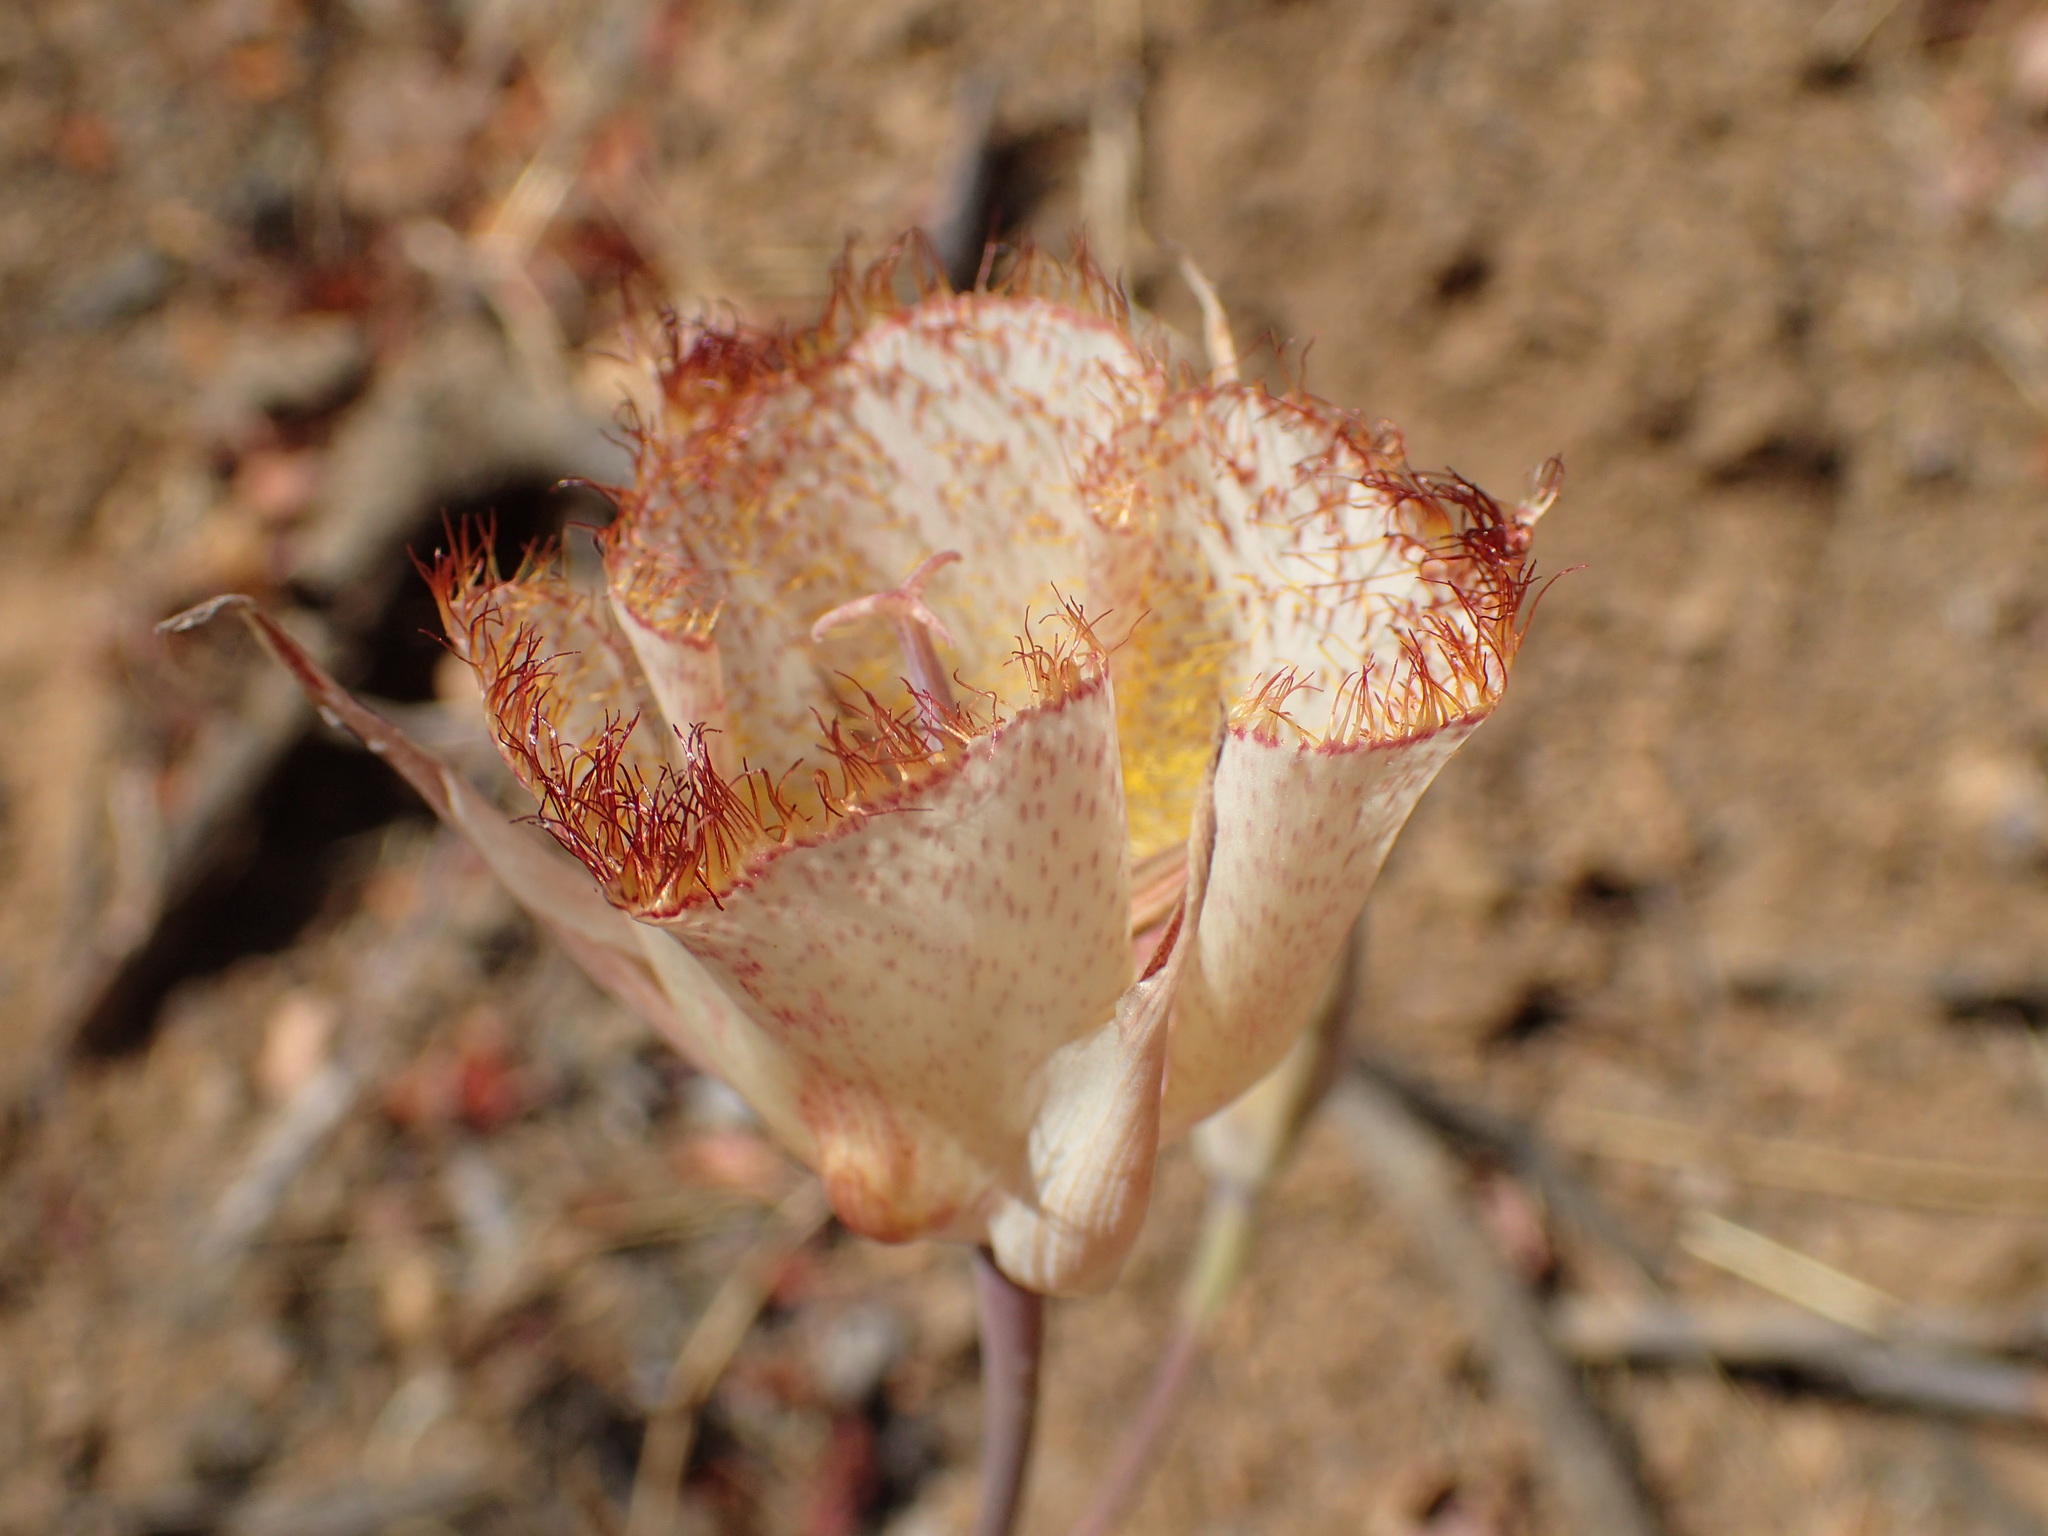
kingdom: Plantae
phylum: Tracheophyta
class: Liliopsida
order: Liliales
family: Liliaceae
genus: Calochortus
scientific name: Calochortus fimbriatus
